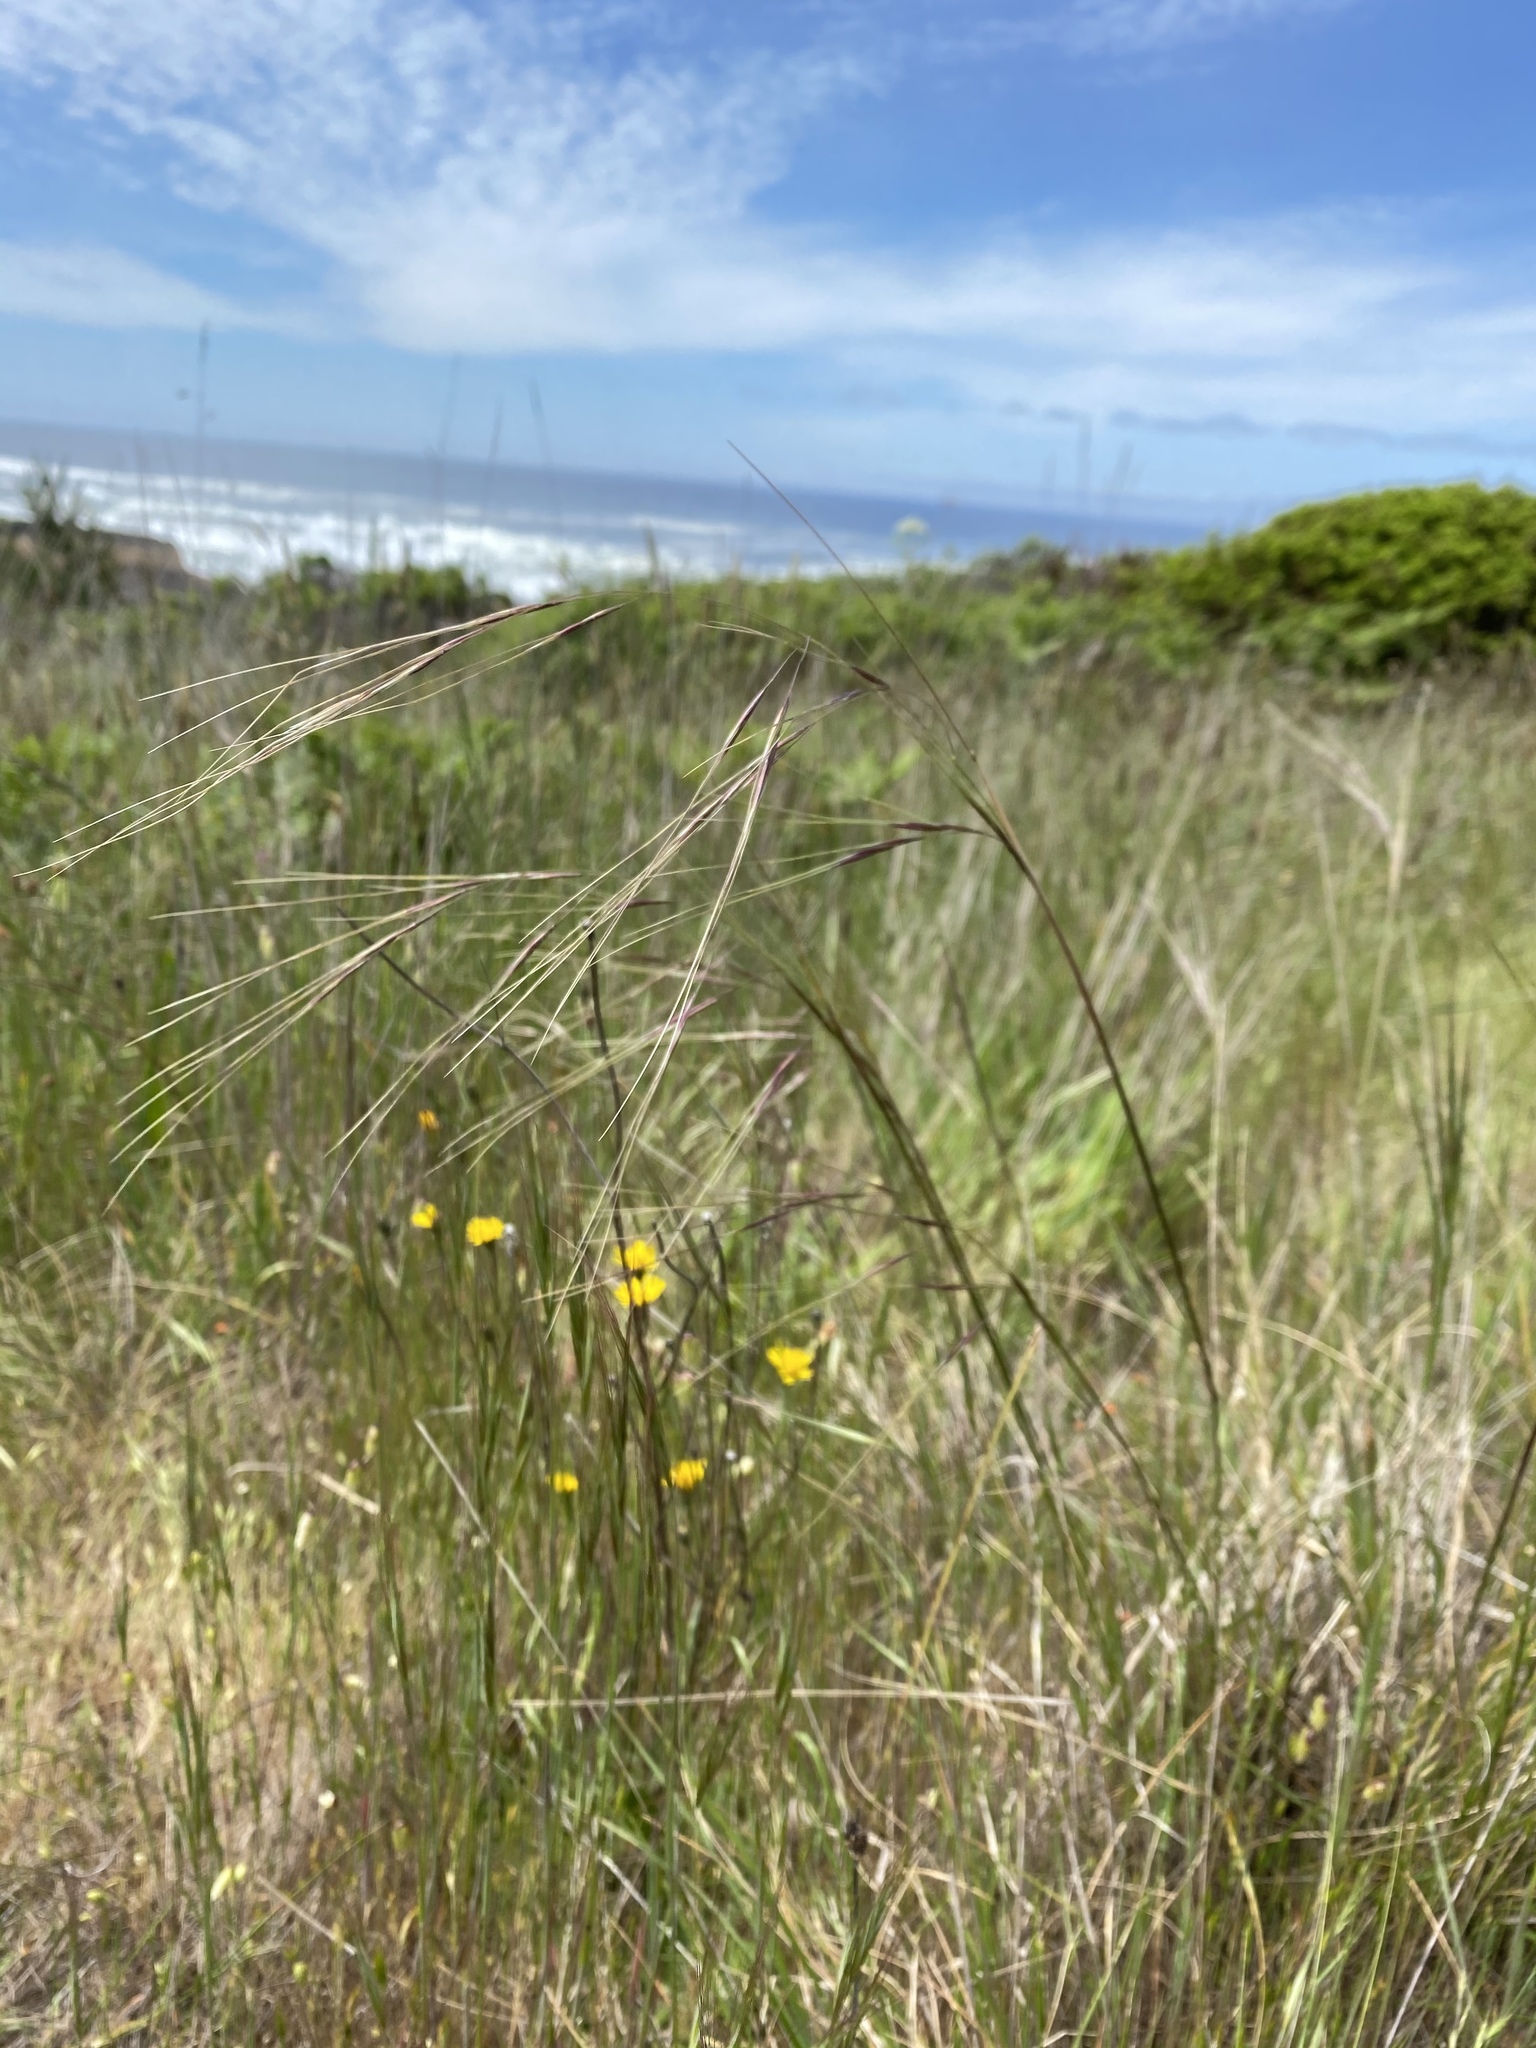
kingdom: Plantae
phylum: Tracheophyta
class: Liliopsida
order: Poales
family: Poaceae
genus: Nassella
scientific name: Nassella pulchra
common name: Purple needlegrass
